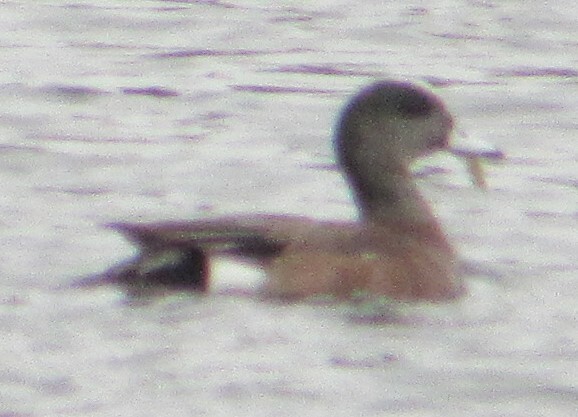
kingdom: Animalia
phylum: Chordata
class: Aves
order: Anseriformes
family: Anatidae
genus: Mareca
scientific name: Mareca americana
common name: American wigeon
